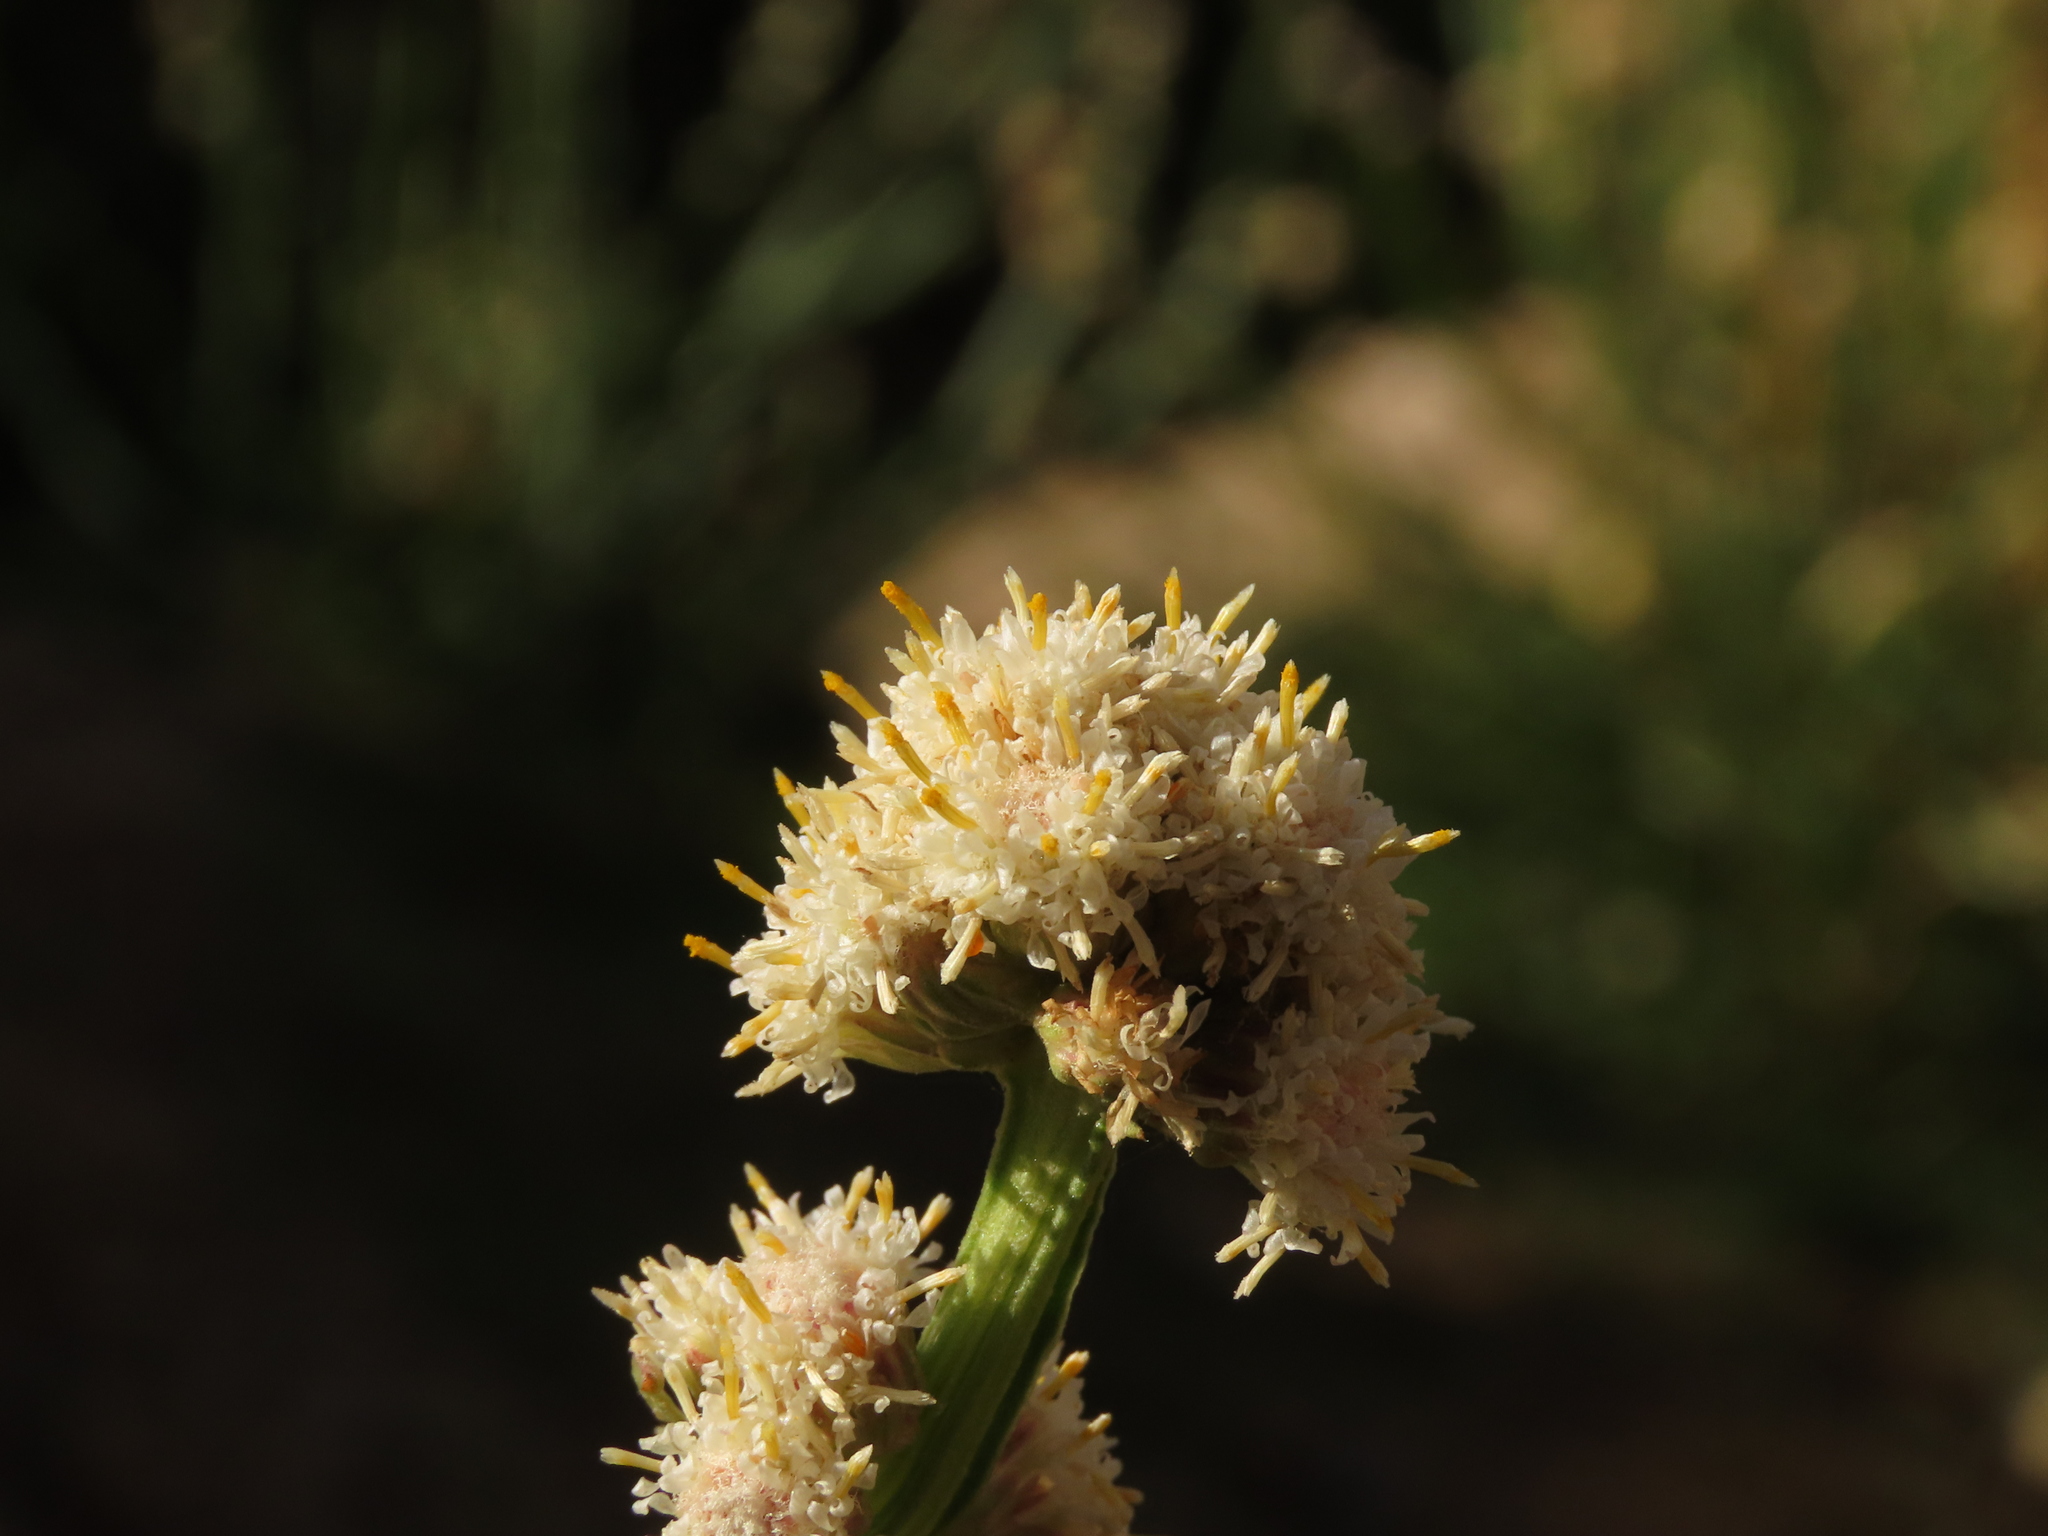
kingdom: Plantae
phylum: Tracheophyta
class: Magnoliopsida
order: Asterales
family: Asteraceae
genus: Baccharis
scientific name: Baccharis sagittalis
